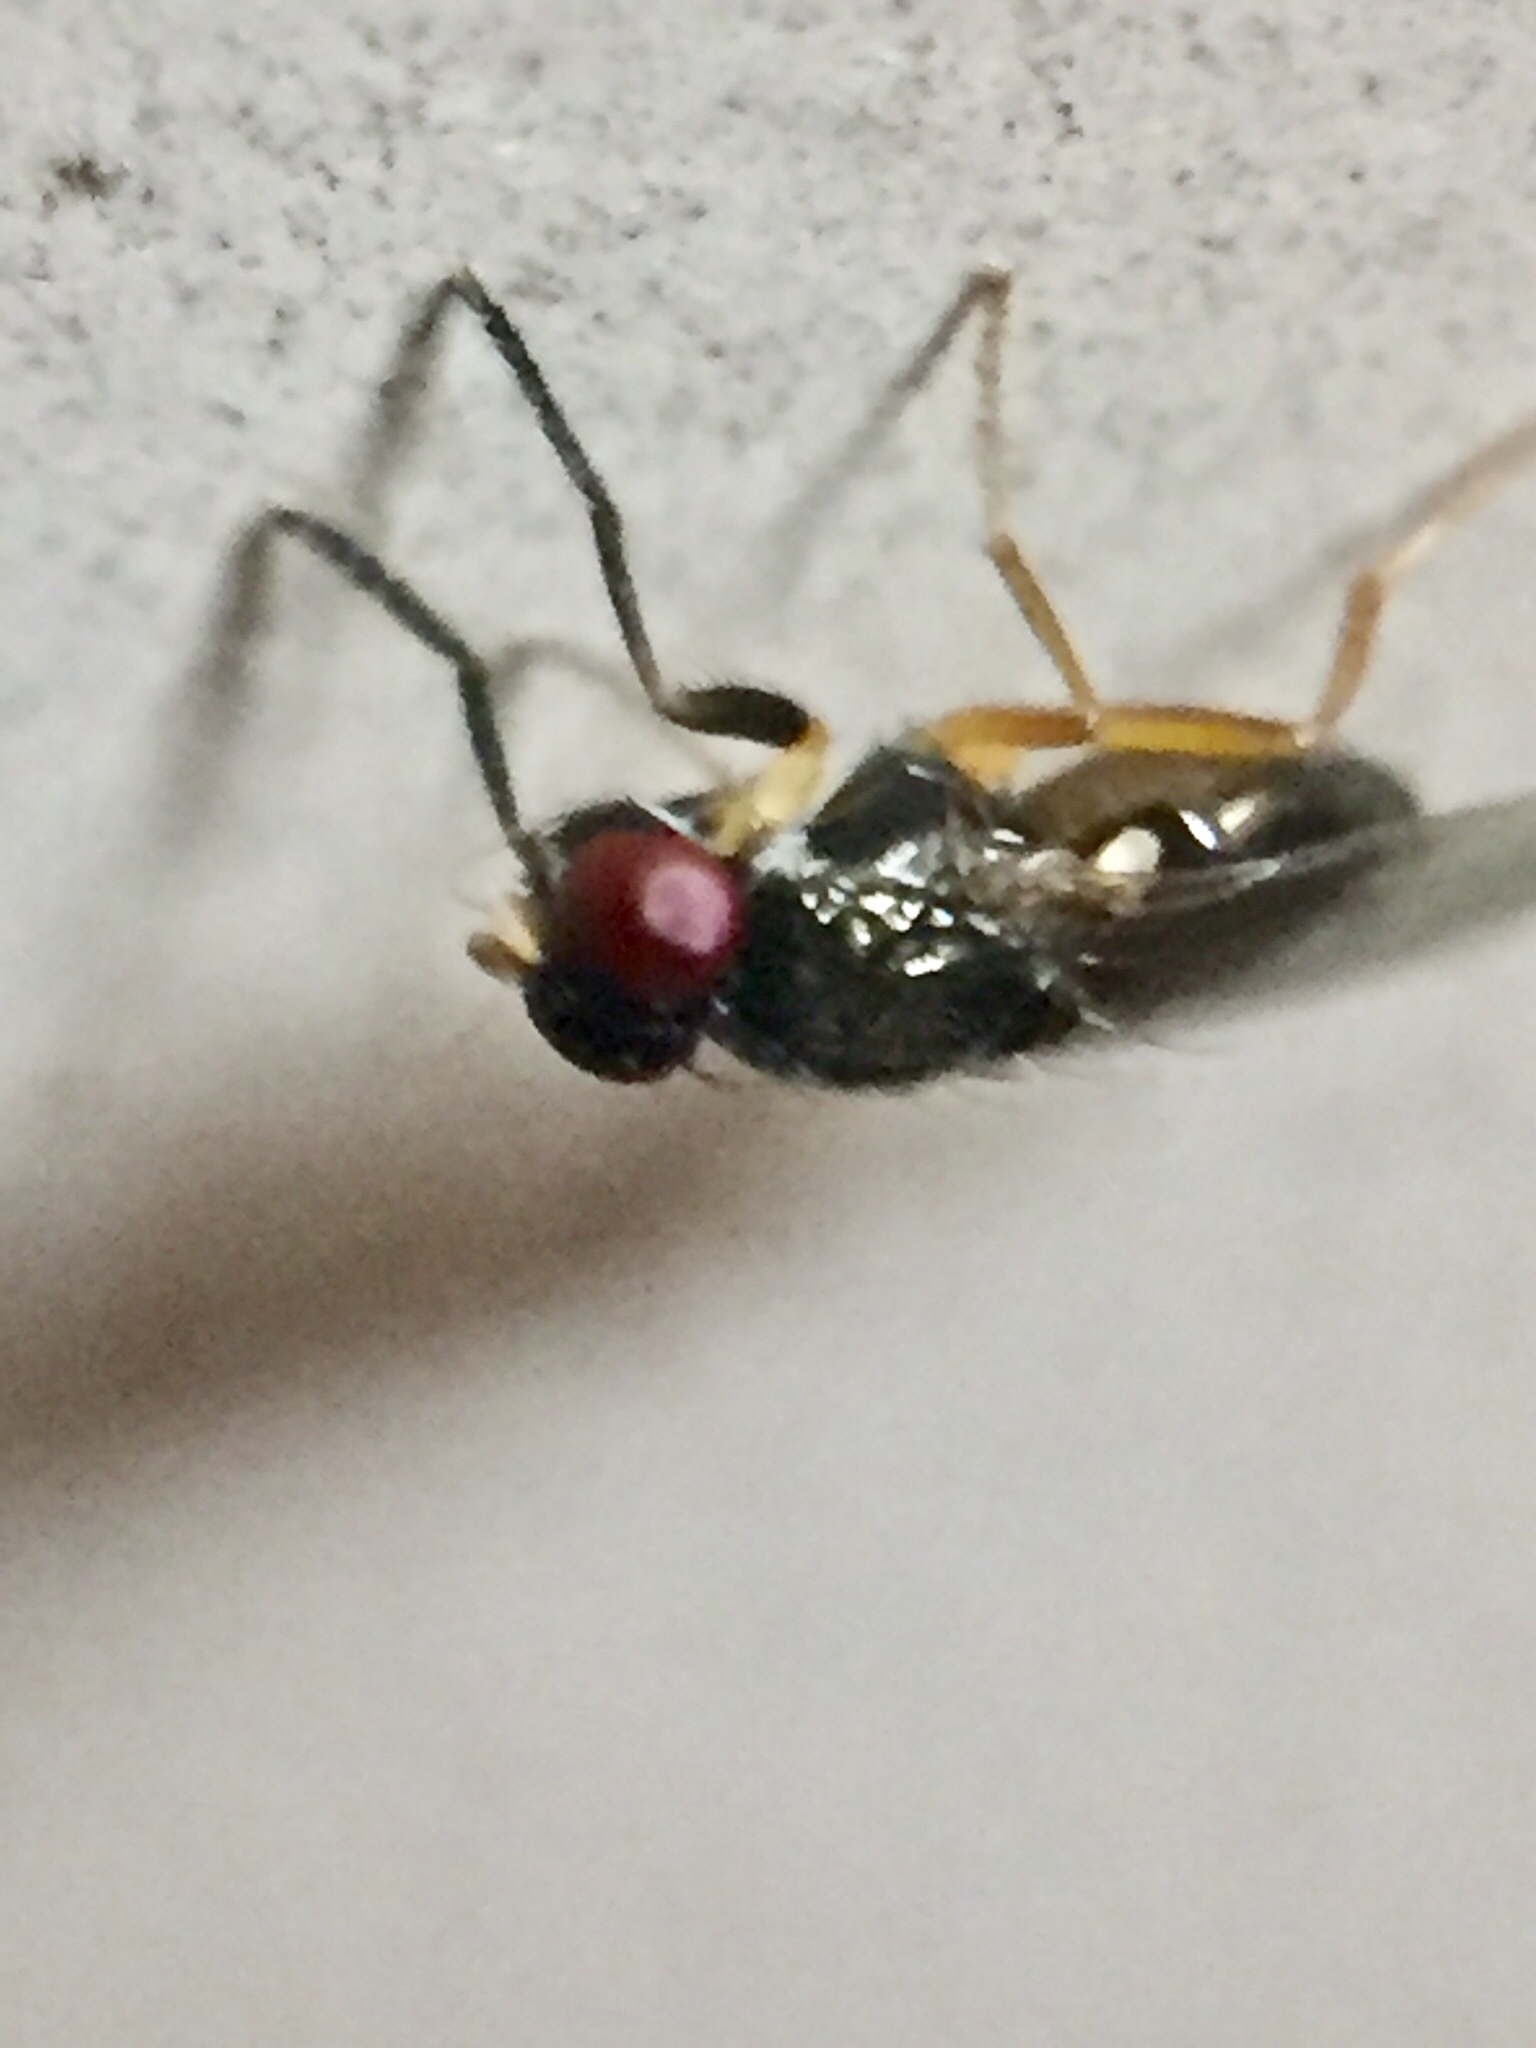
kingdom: Animalia
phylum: Arthropoda
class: Insecta
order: Diptera
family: Piophilidae
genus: Protopiophila
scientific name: Protopiophila australis
